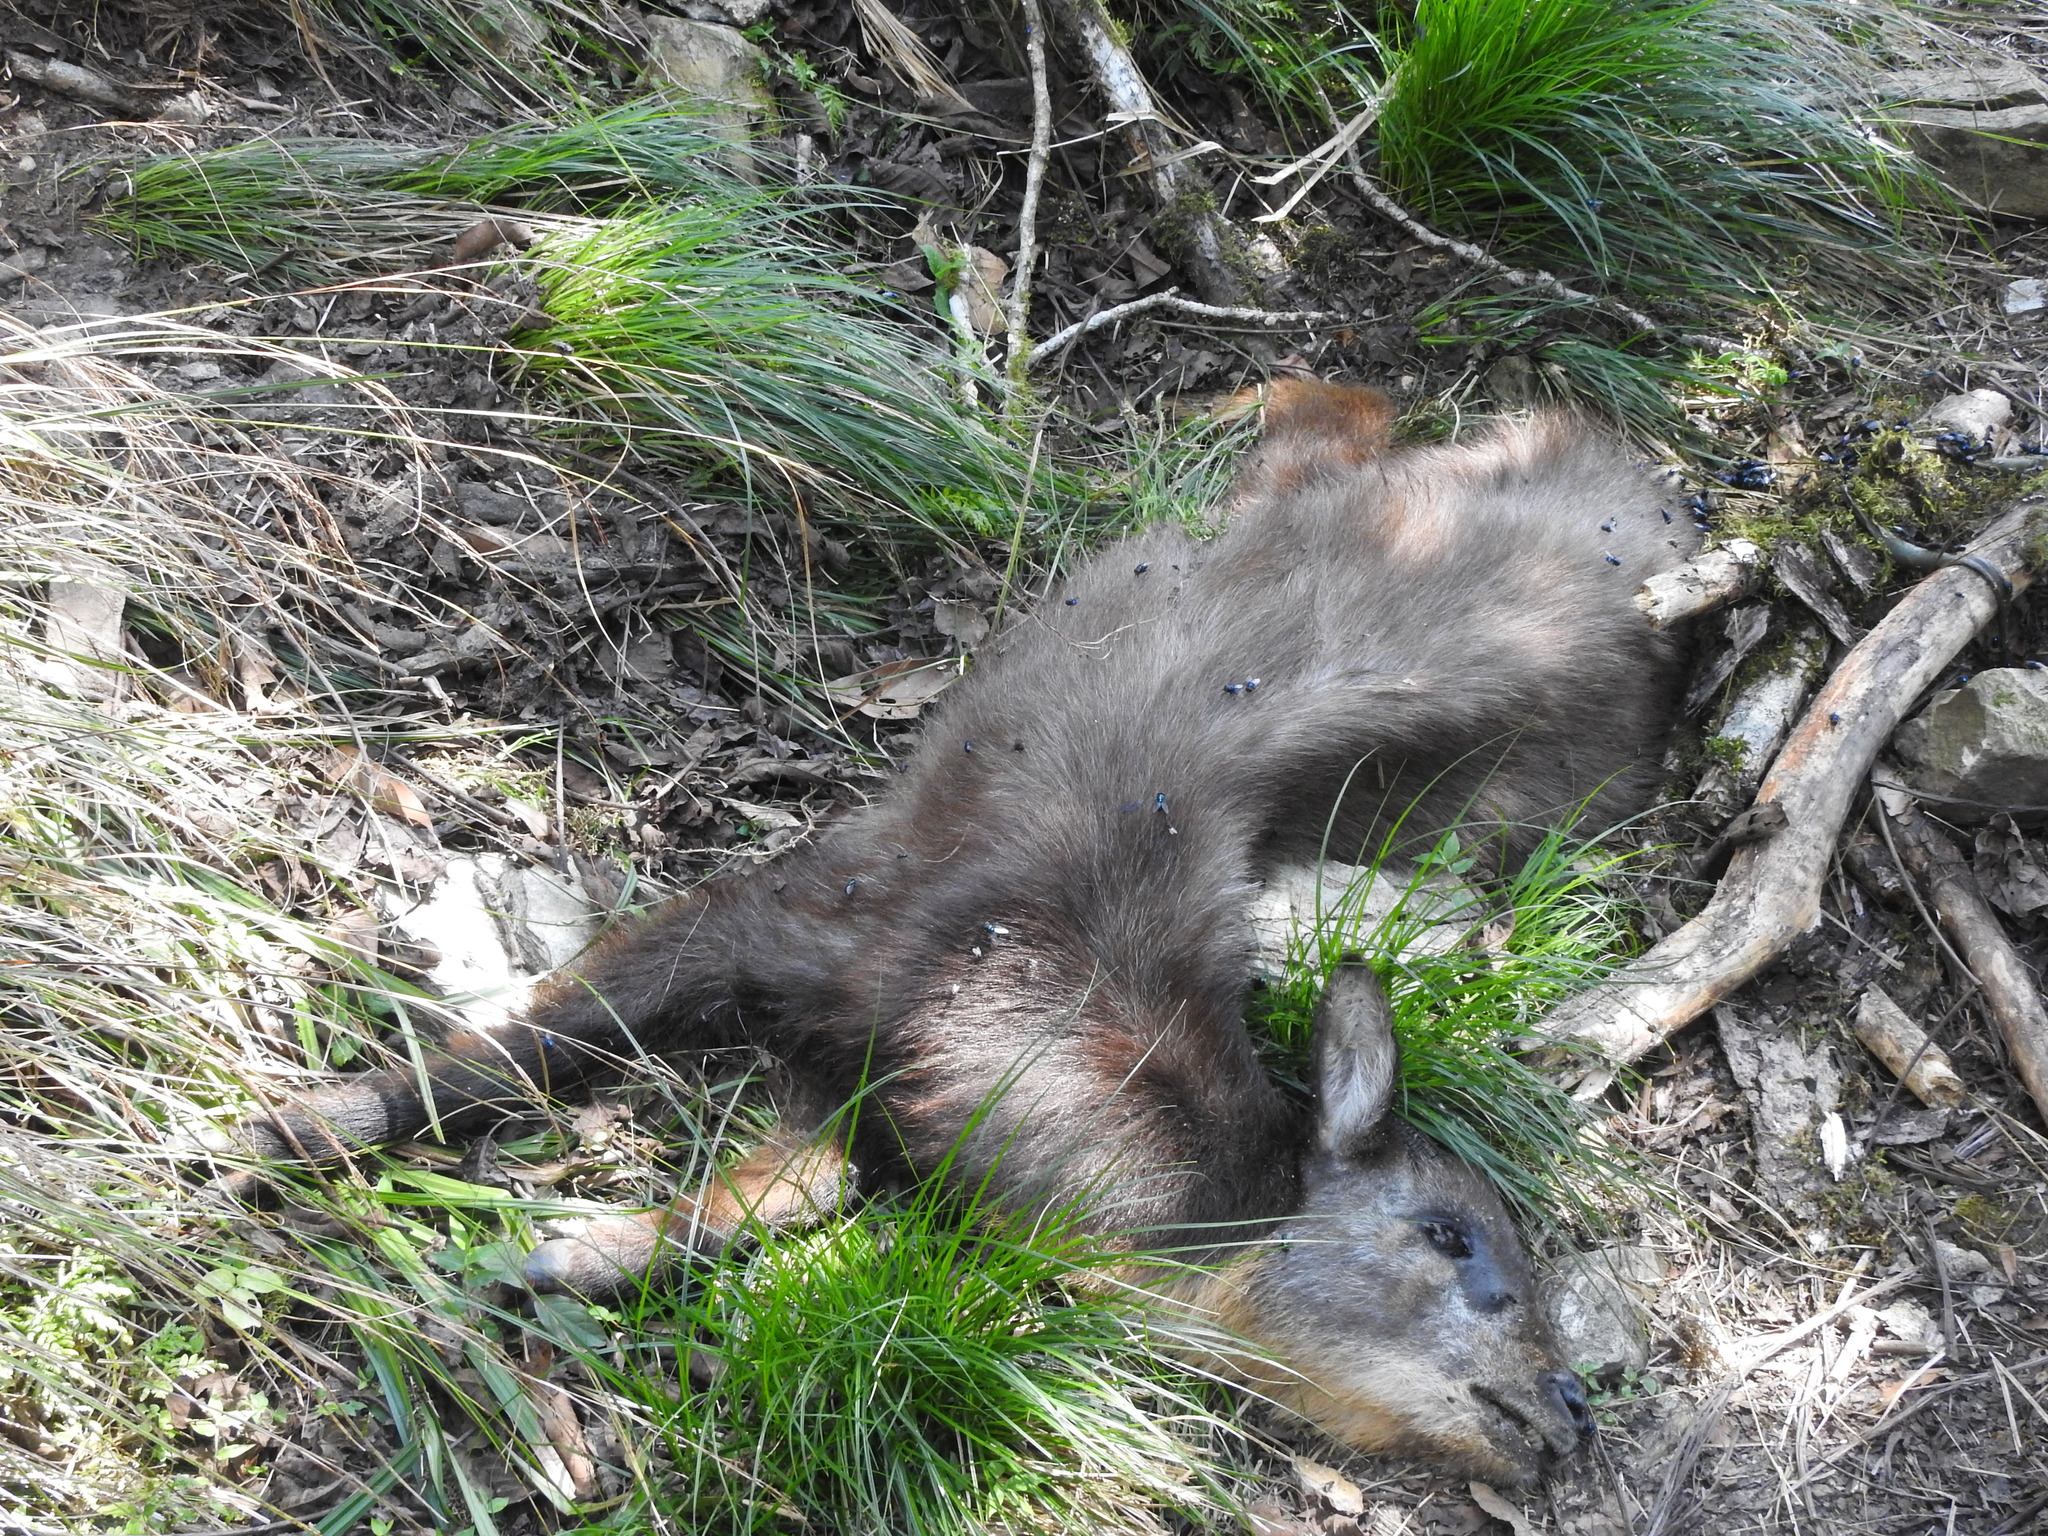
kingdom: Animalia
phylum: Chordata
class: Mammalia
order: Artiodactyla
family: Bovidae
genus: Capricornis
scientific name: Capricornis swinhoei
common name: Formosan serow
